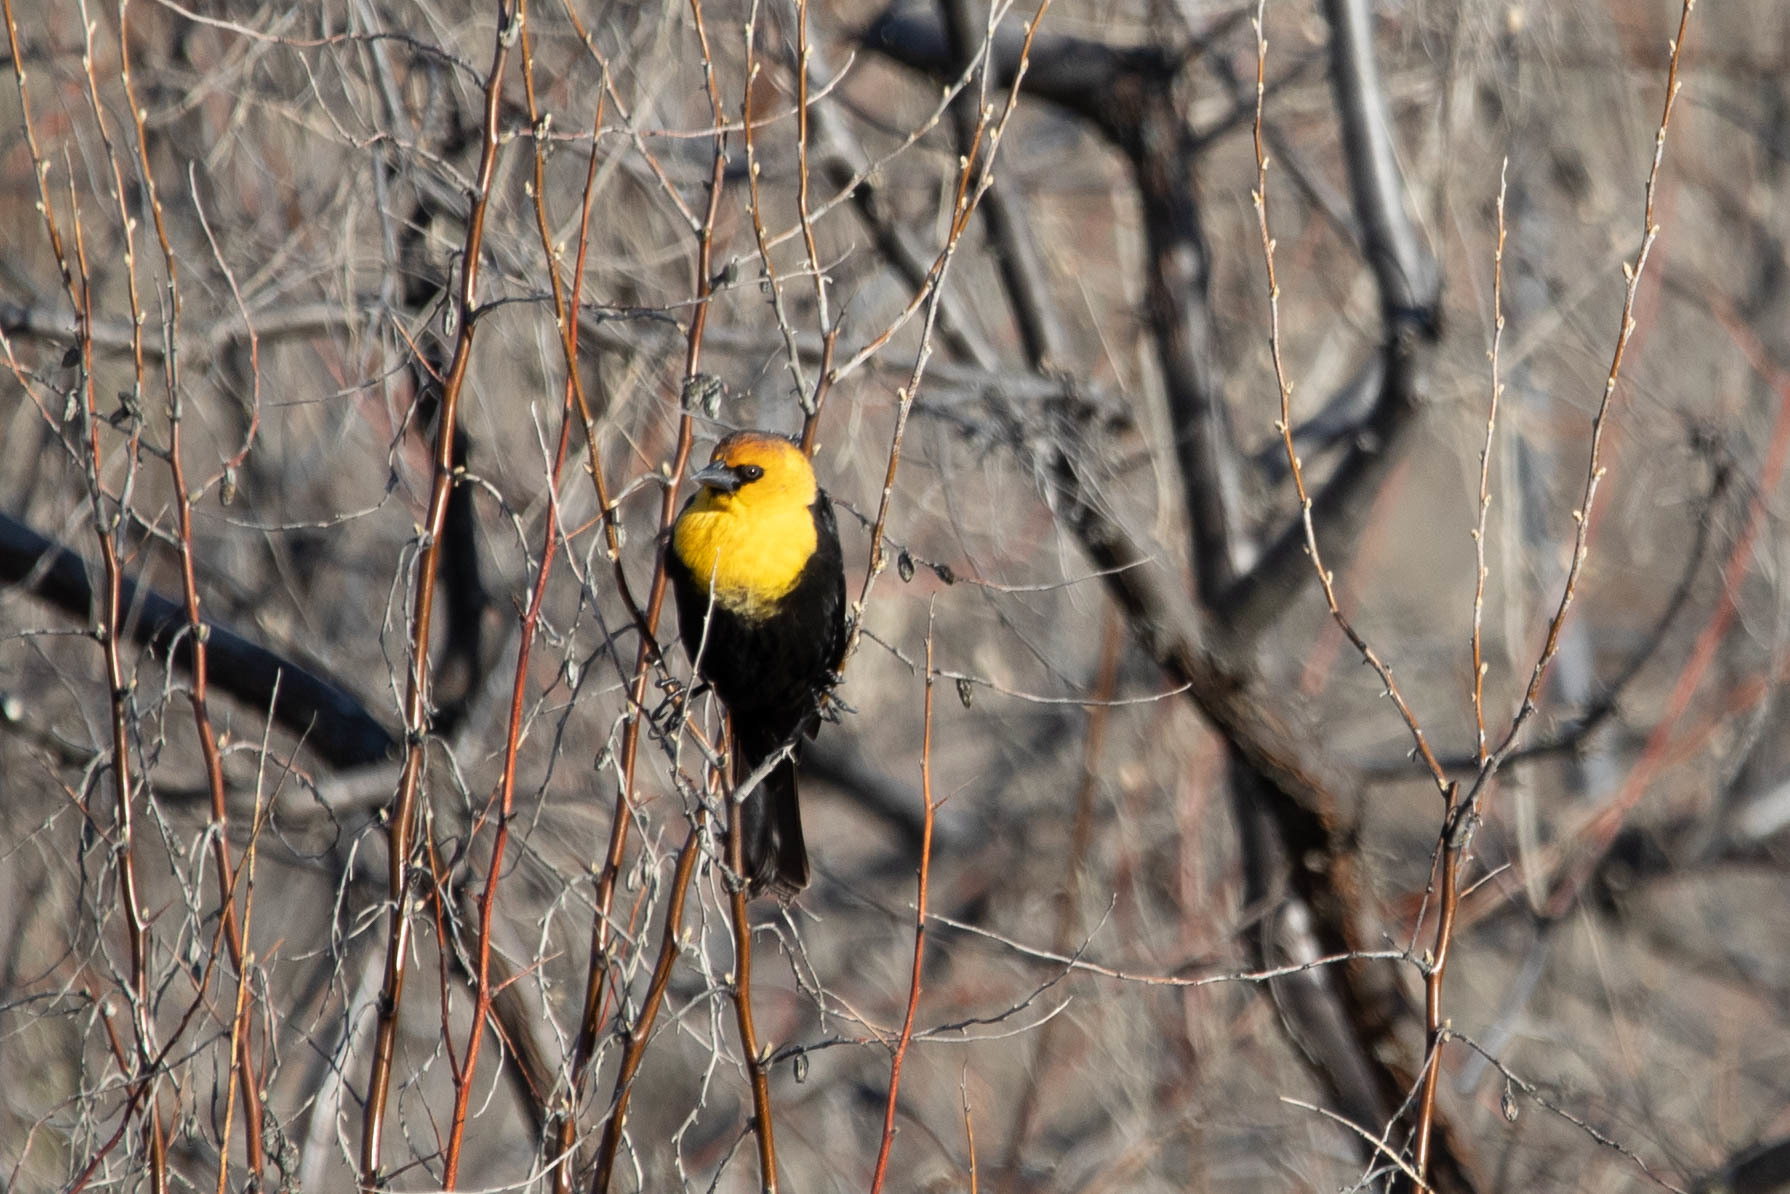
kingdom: Animalia
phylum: Chordata
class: Aves
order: Passeriformes
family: Icteridae
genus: Xanthocephalus
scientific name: Xanthocephalus xanthocephalus
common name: Yellow-headed blackbird
